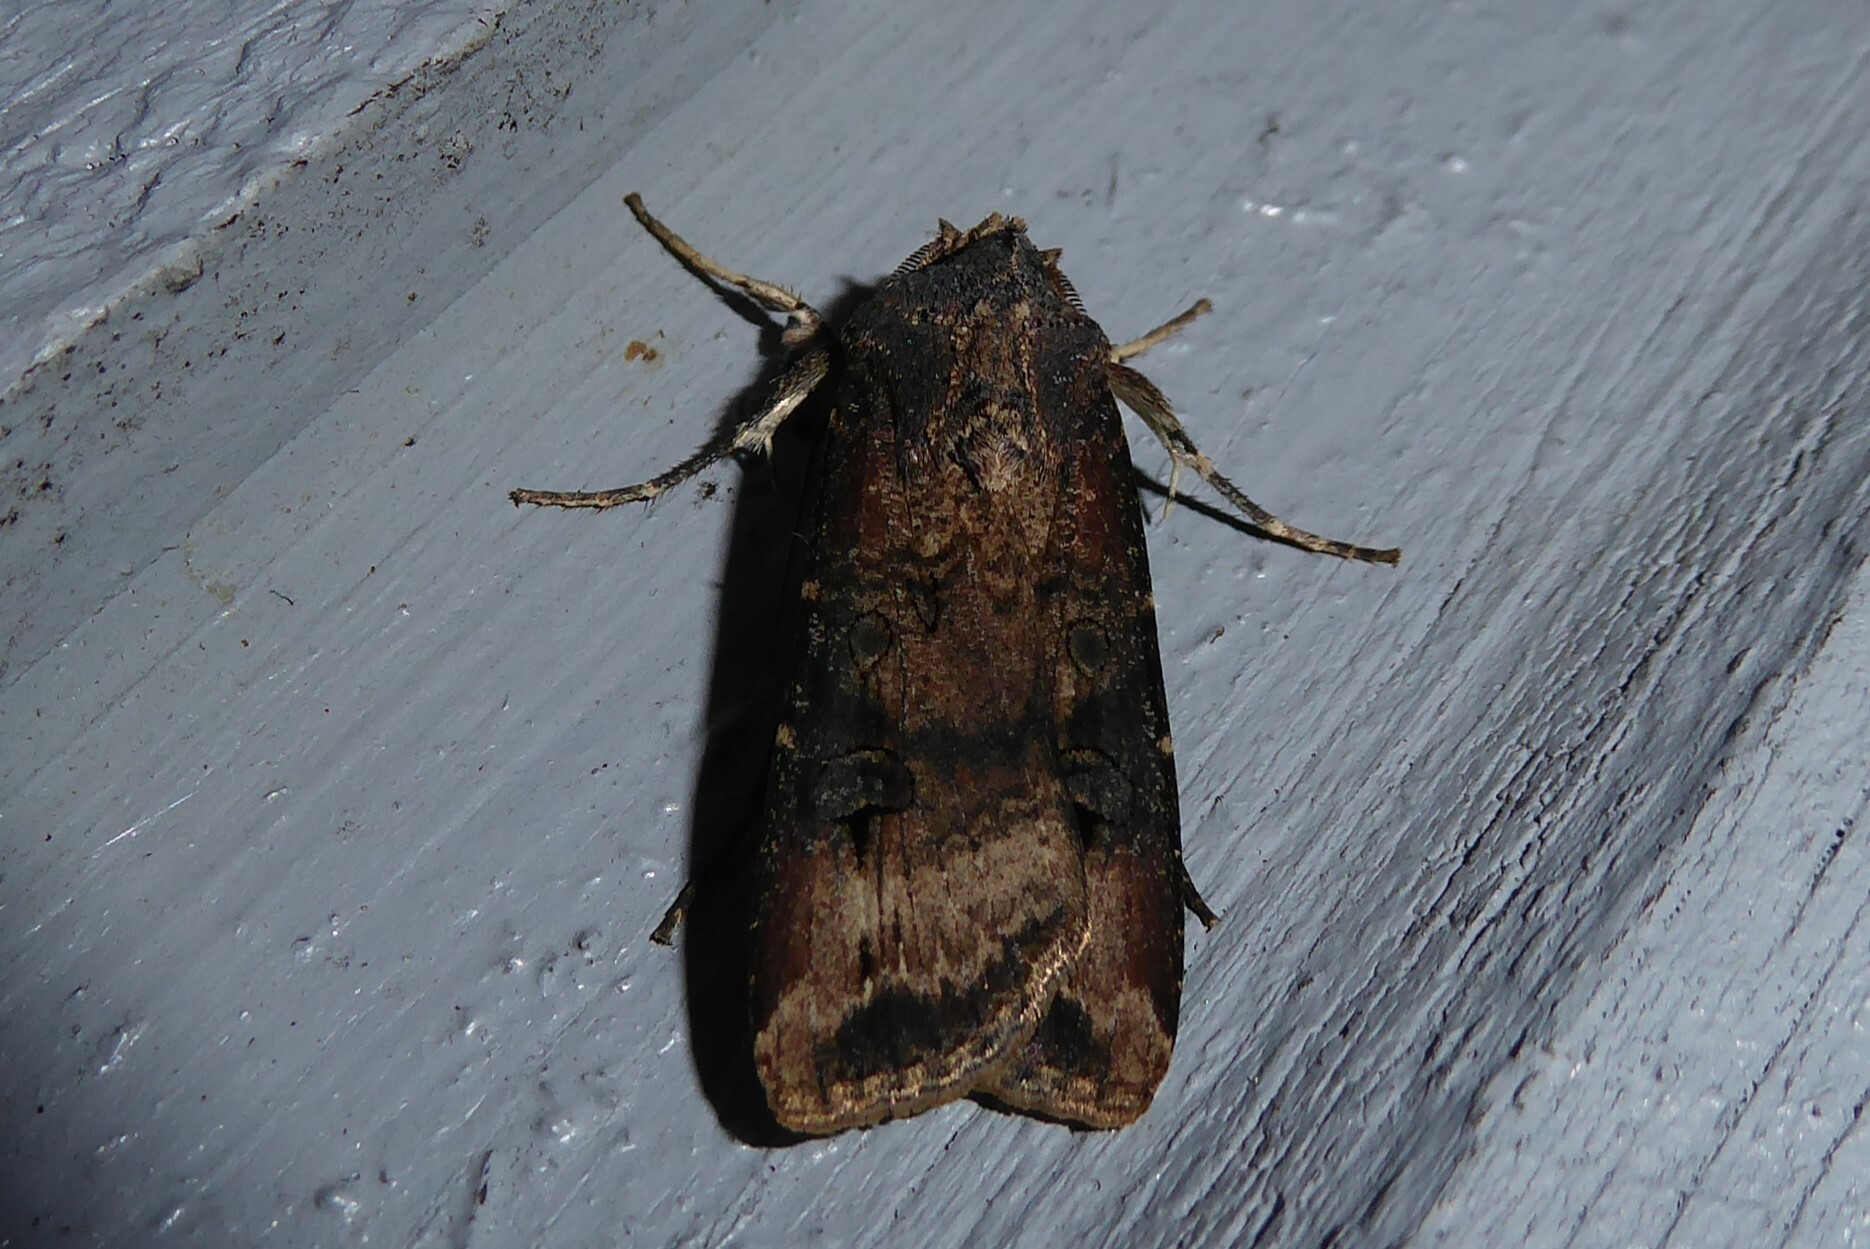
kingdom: Animalia
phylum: Arthropoda
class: Insecta
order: Lepidoptera
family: Noctuidae
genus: Agrotis
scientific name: Agrotis ipsilon
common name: Dark sword-grass
